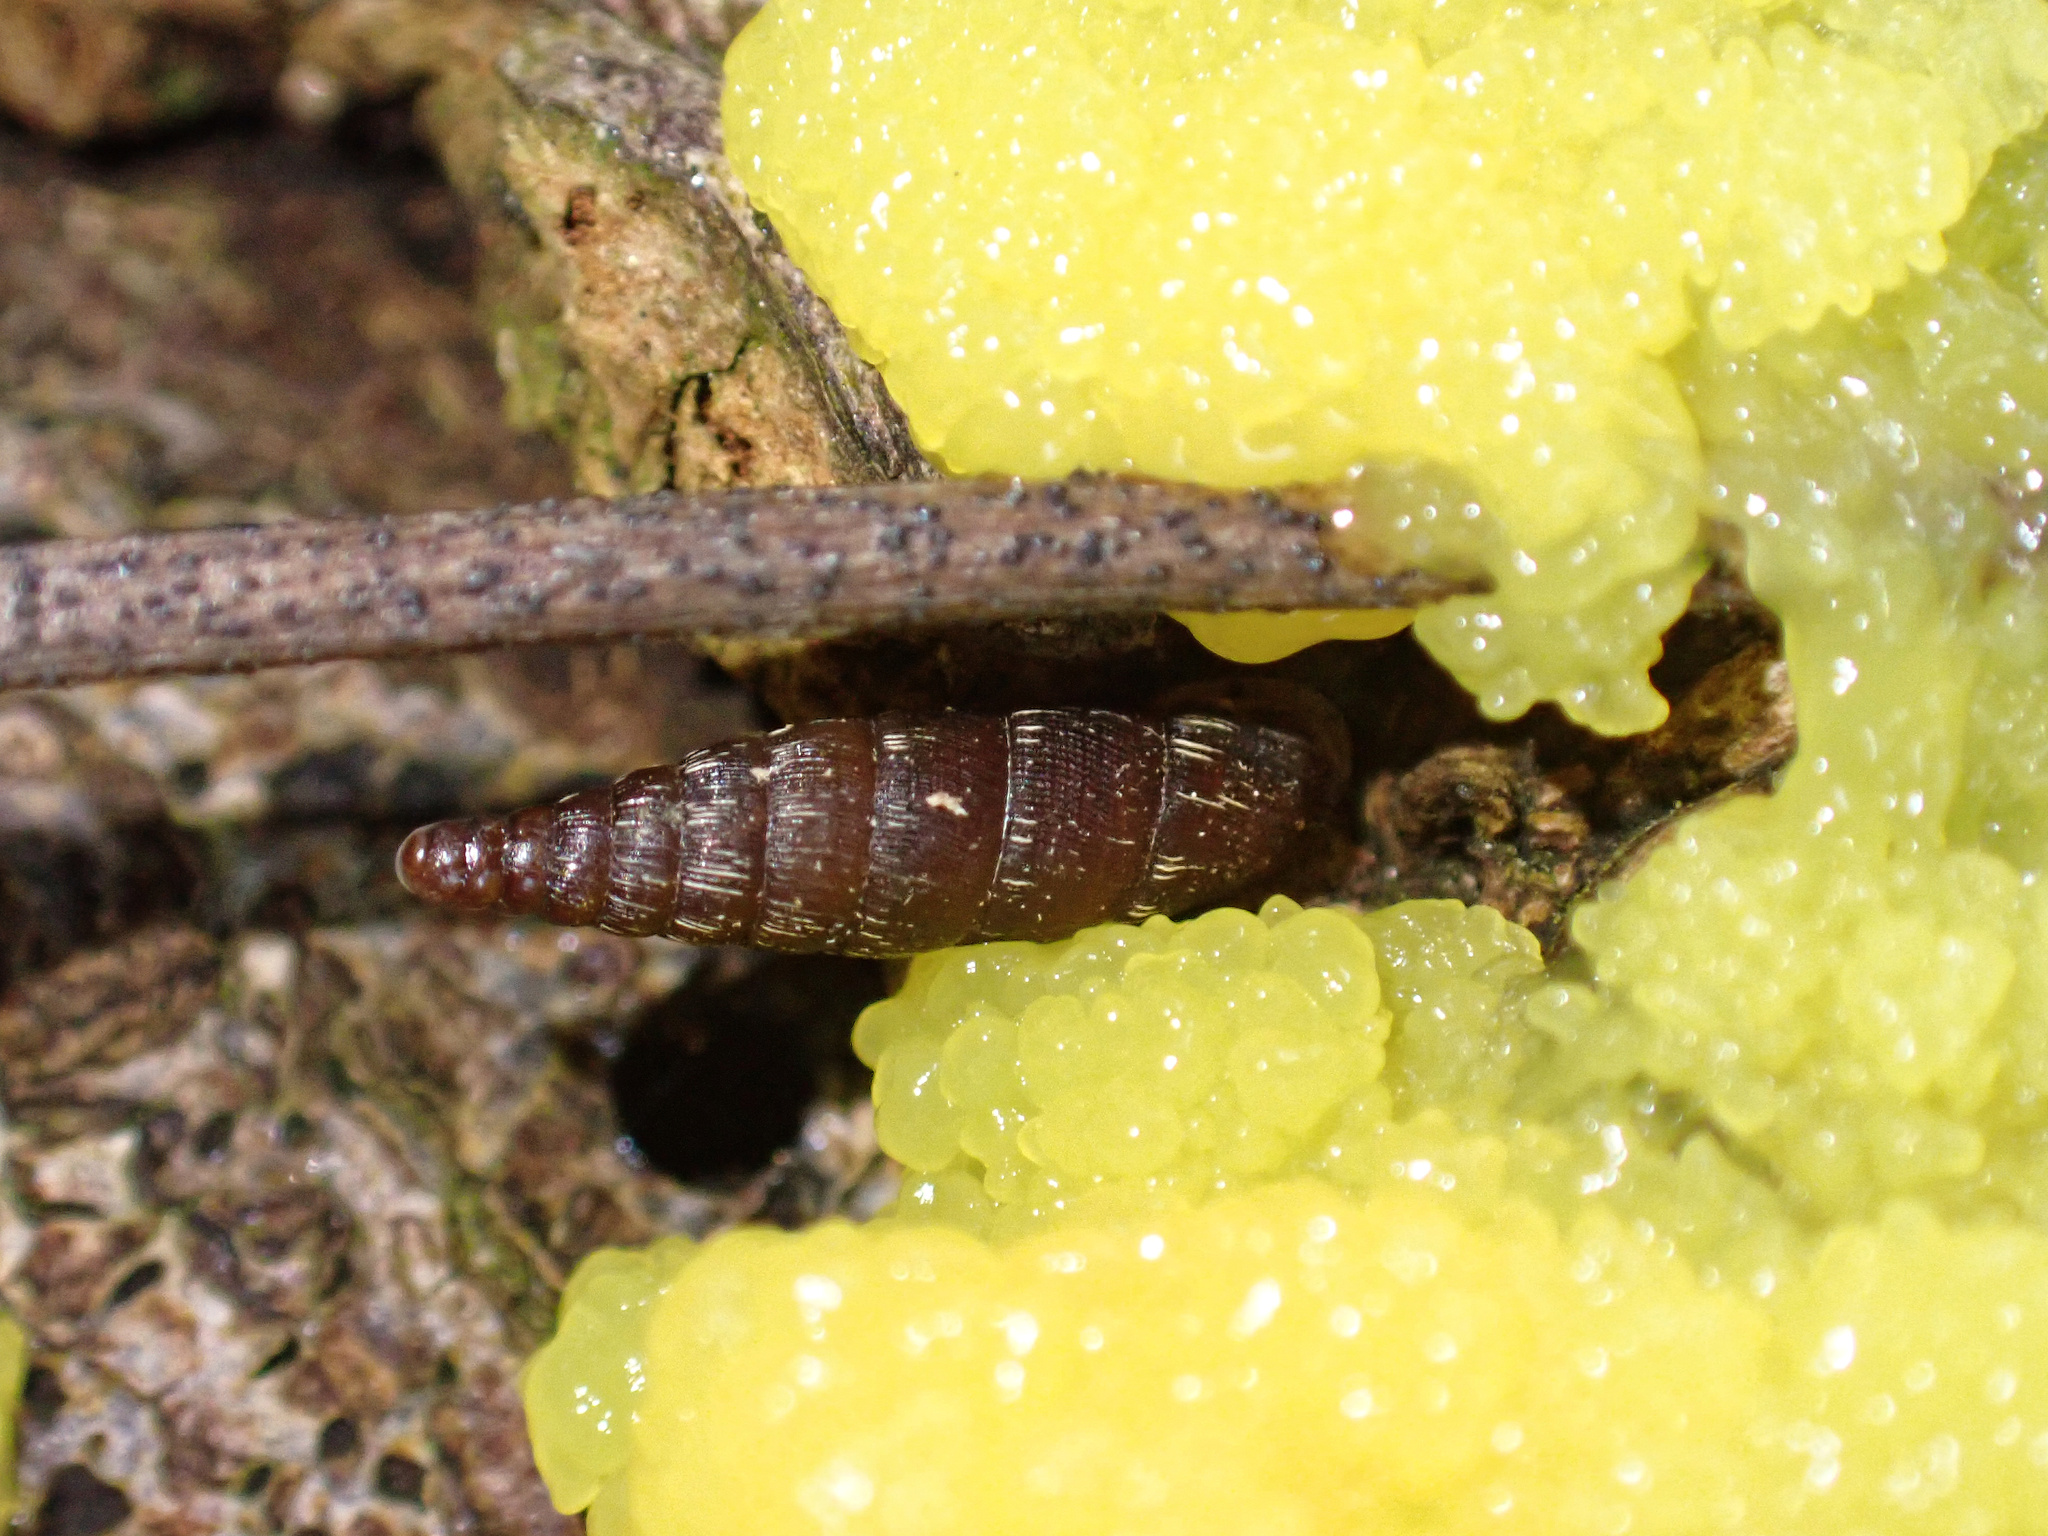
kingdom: Animalia
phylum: Mollusca
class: Gastropoda
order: Stylommatophora
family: Clausiliidae
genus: Clausilia
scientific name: Clausilia bidentata
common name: Two-toothed door snail
